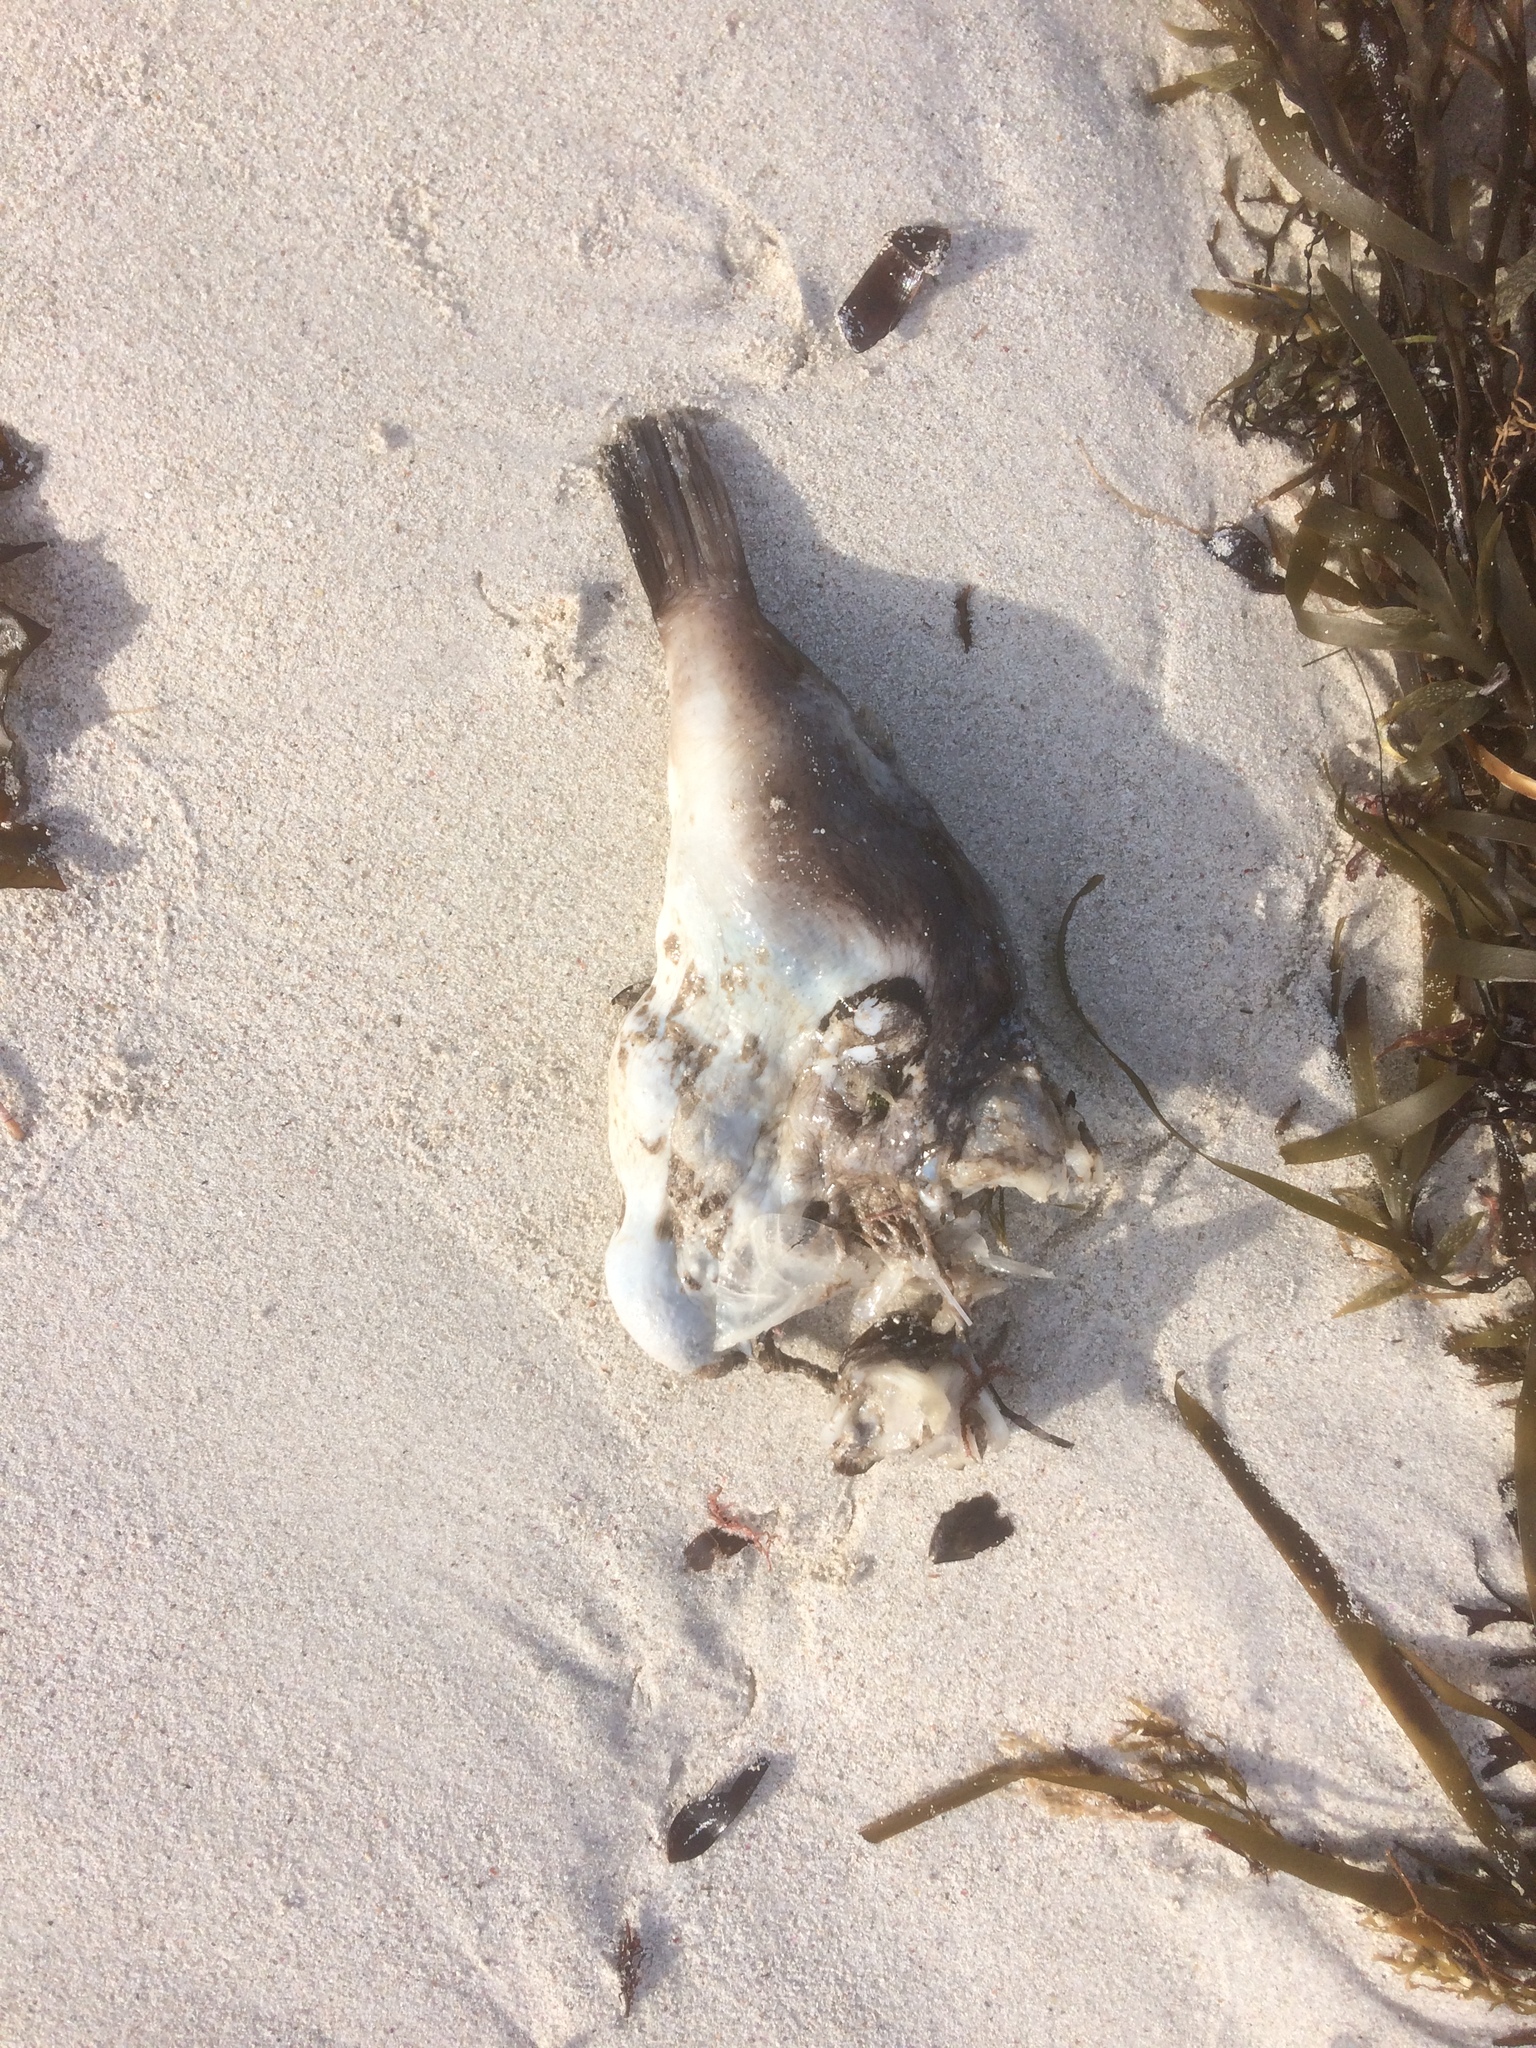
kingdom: Animalia
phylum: Chordata
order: Tetraodontiformes
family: Tetraodontidae
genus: Omegophora
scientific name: Omegophora armilla
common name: Ringed pufferfish
